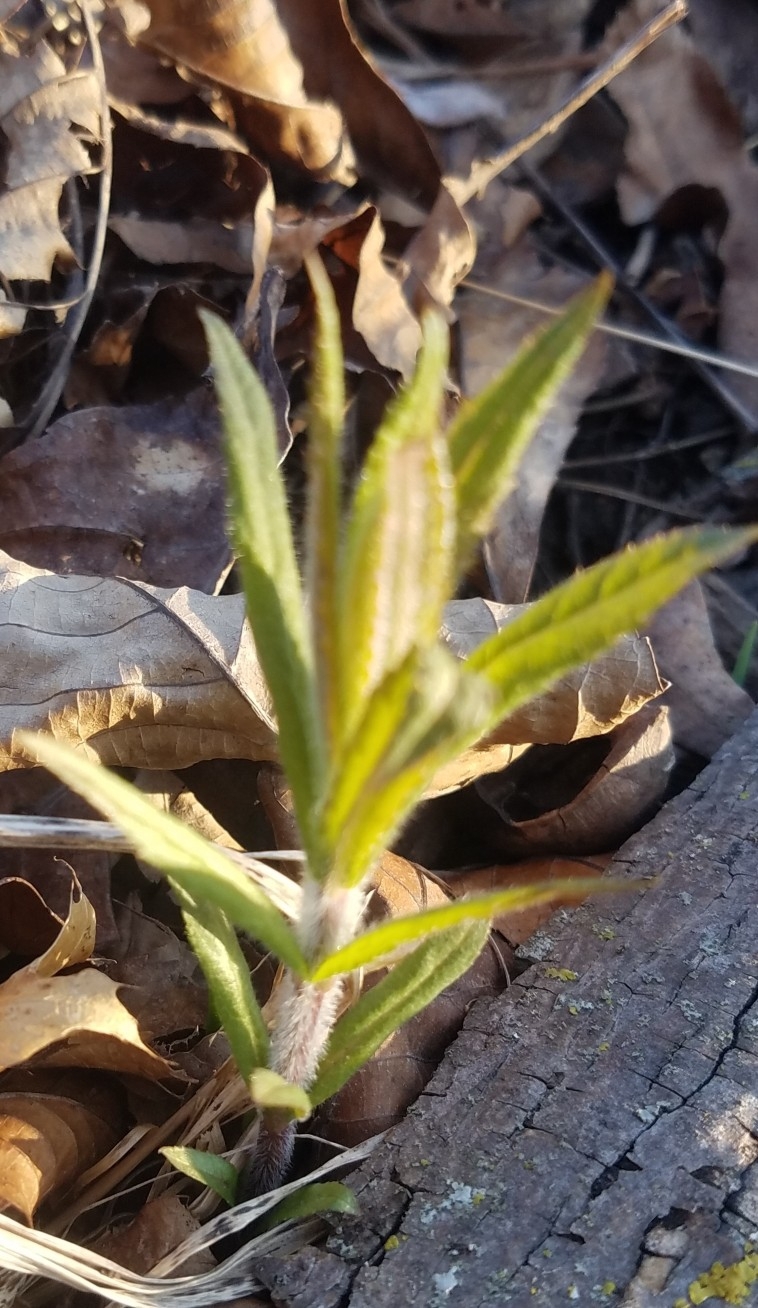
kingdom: Plantae
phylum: Tracheophyta
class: Magnoliopsida
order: Lamiales
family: Plantaginaceae
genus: Veronicastrum
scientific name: Veronicastrum virginicum
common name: Blackroot
